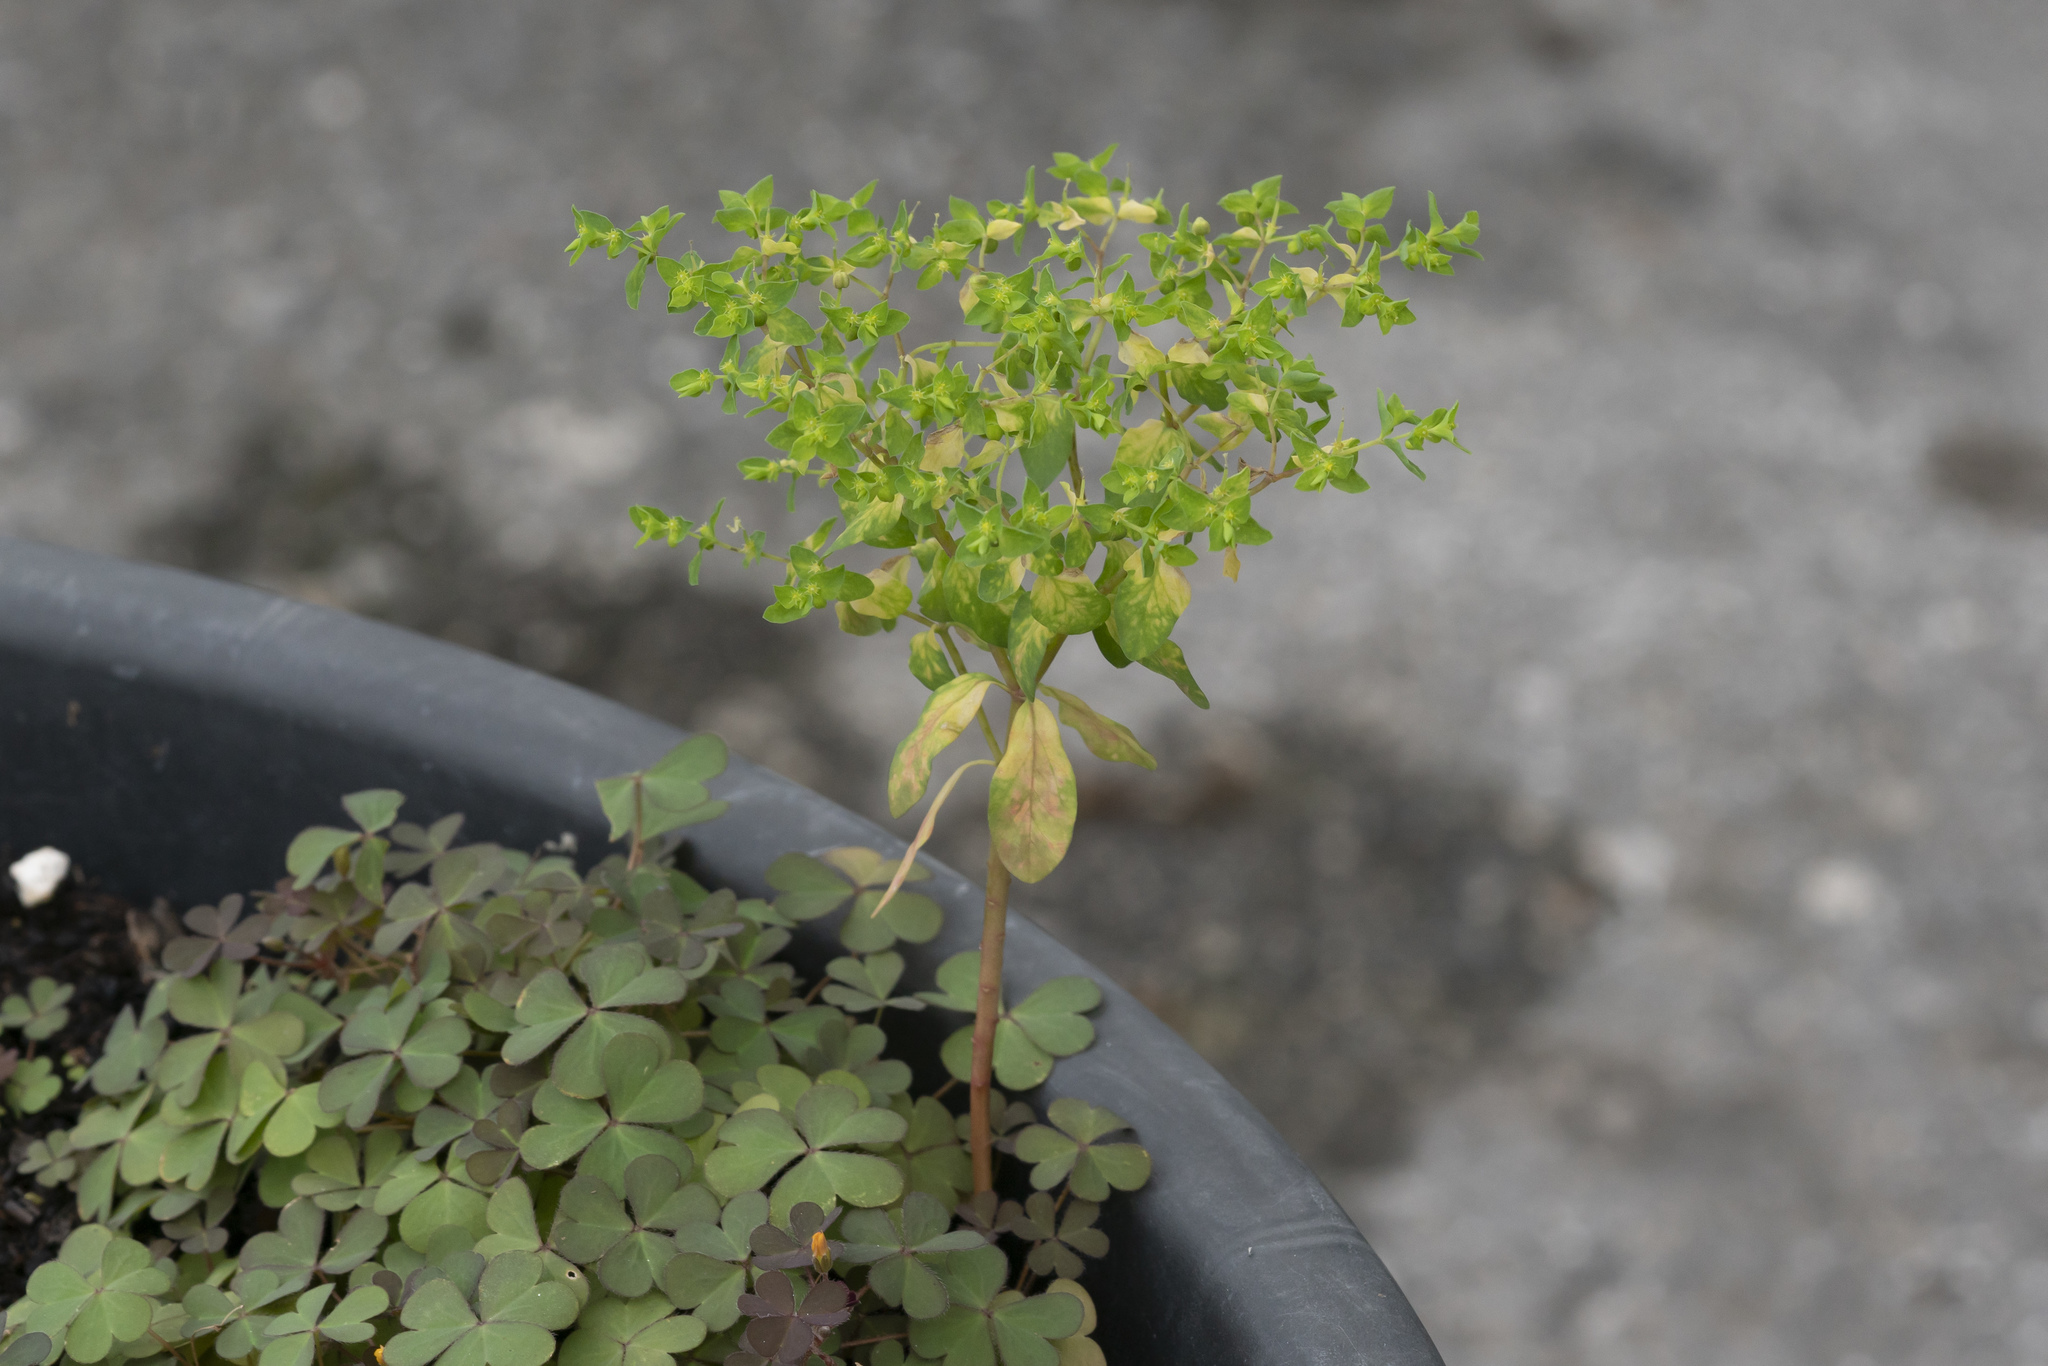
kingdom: Plantae
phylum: Tracheophyta
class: Magnoliopsida
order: Malpighiales
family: Euphorbiaceae
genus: Euphorbia
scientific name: Euphorbia peplus
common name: Petty spurge
